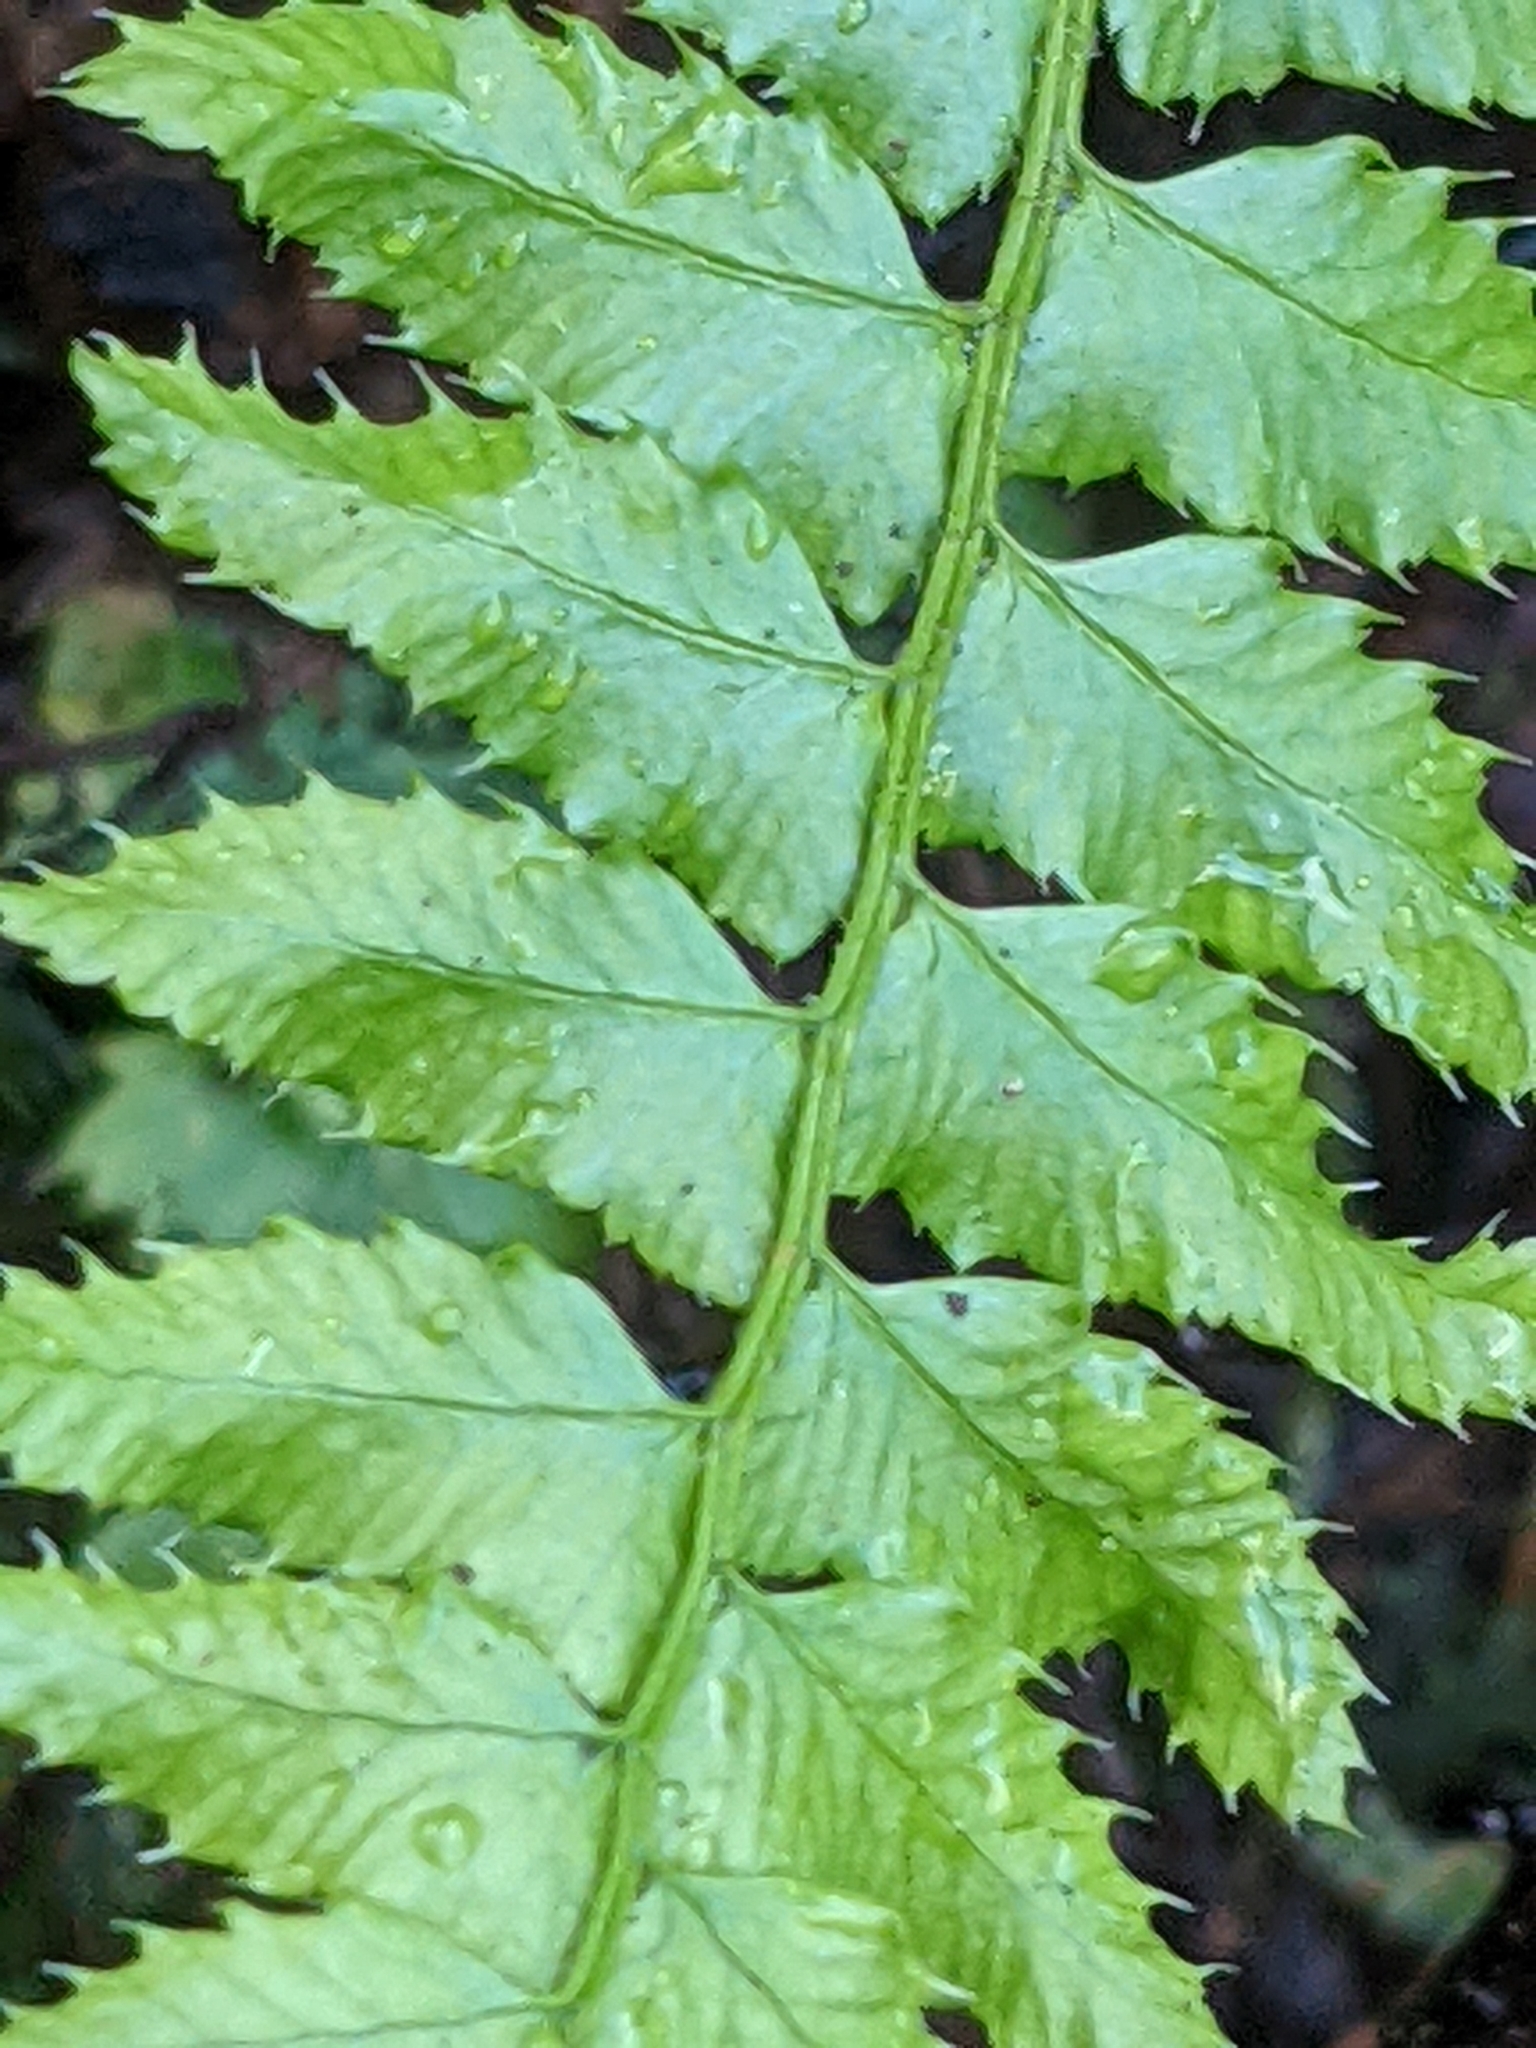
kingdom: Plantae
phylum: Tracheophyta
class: Polypodiopsida
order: Polypodiales
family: Dryopteridaceae
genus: Polystichum
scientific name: Polystichum munitum
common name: Western sword-fern
